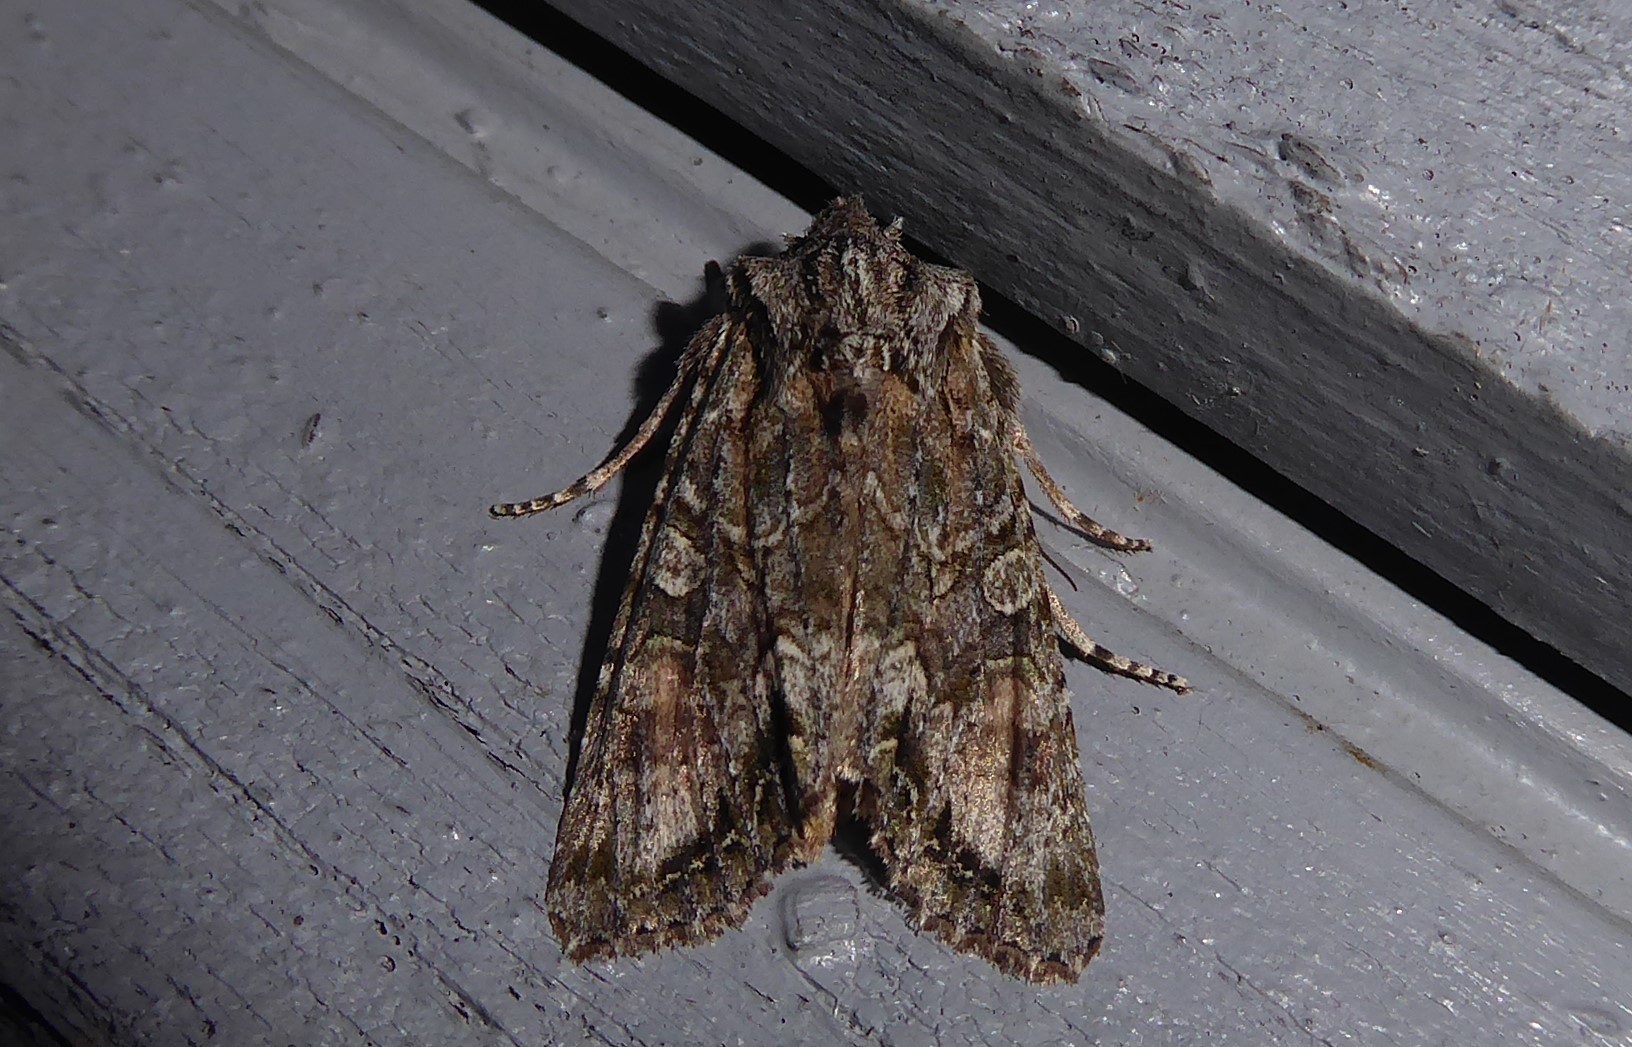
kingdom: Animalia
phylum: Arthropoda
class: Insecta
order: Lepidoptera
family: Noctuidae
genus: Ichneutica
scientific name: Ichneutica mutans
